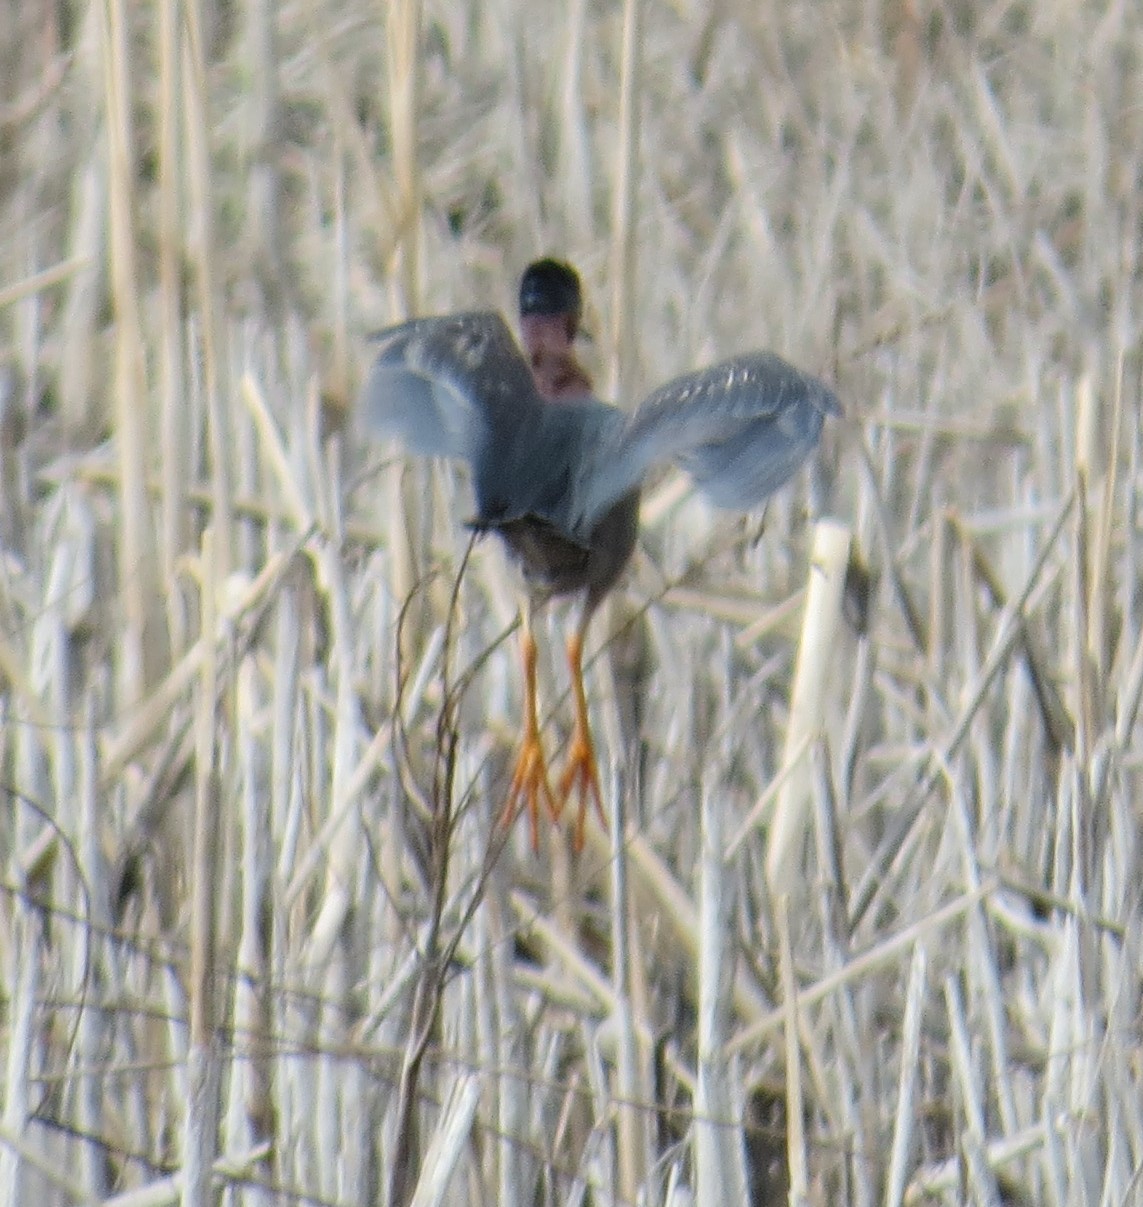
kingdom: Animalia
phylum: Chordata
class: Aves
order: Pelecaniformes
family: Ardeidae
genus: Butorides
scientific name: Butorides virescens
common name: Green heron
